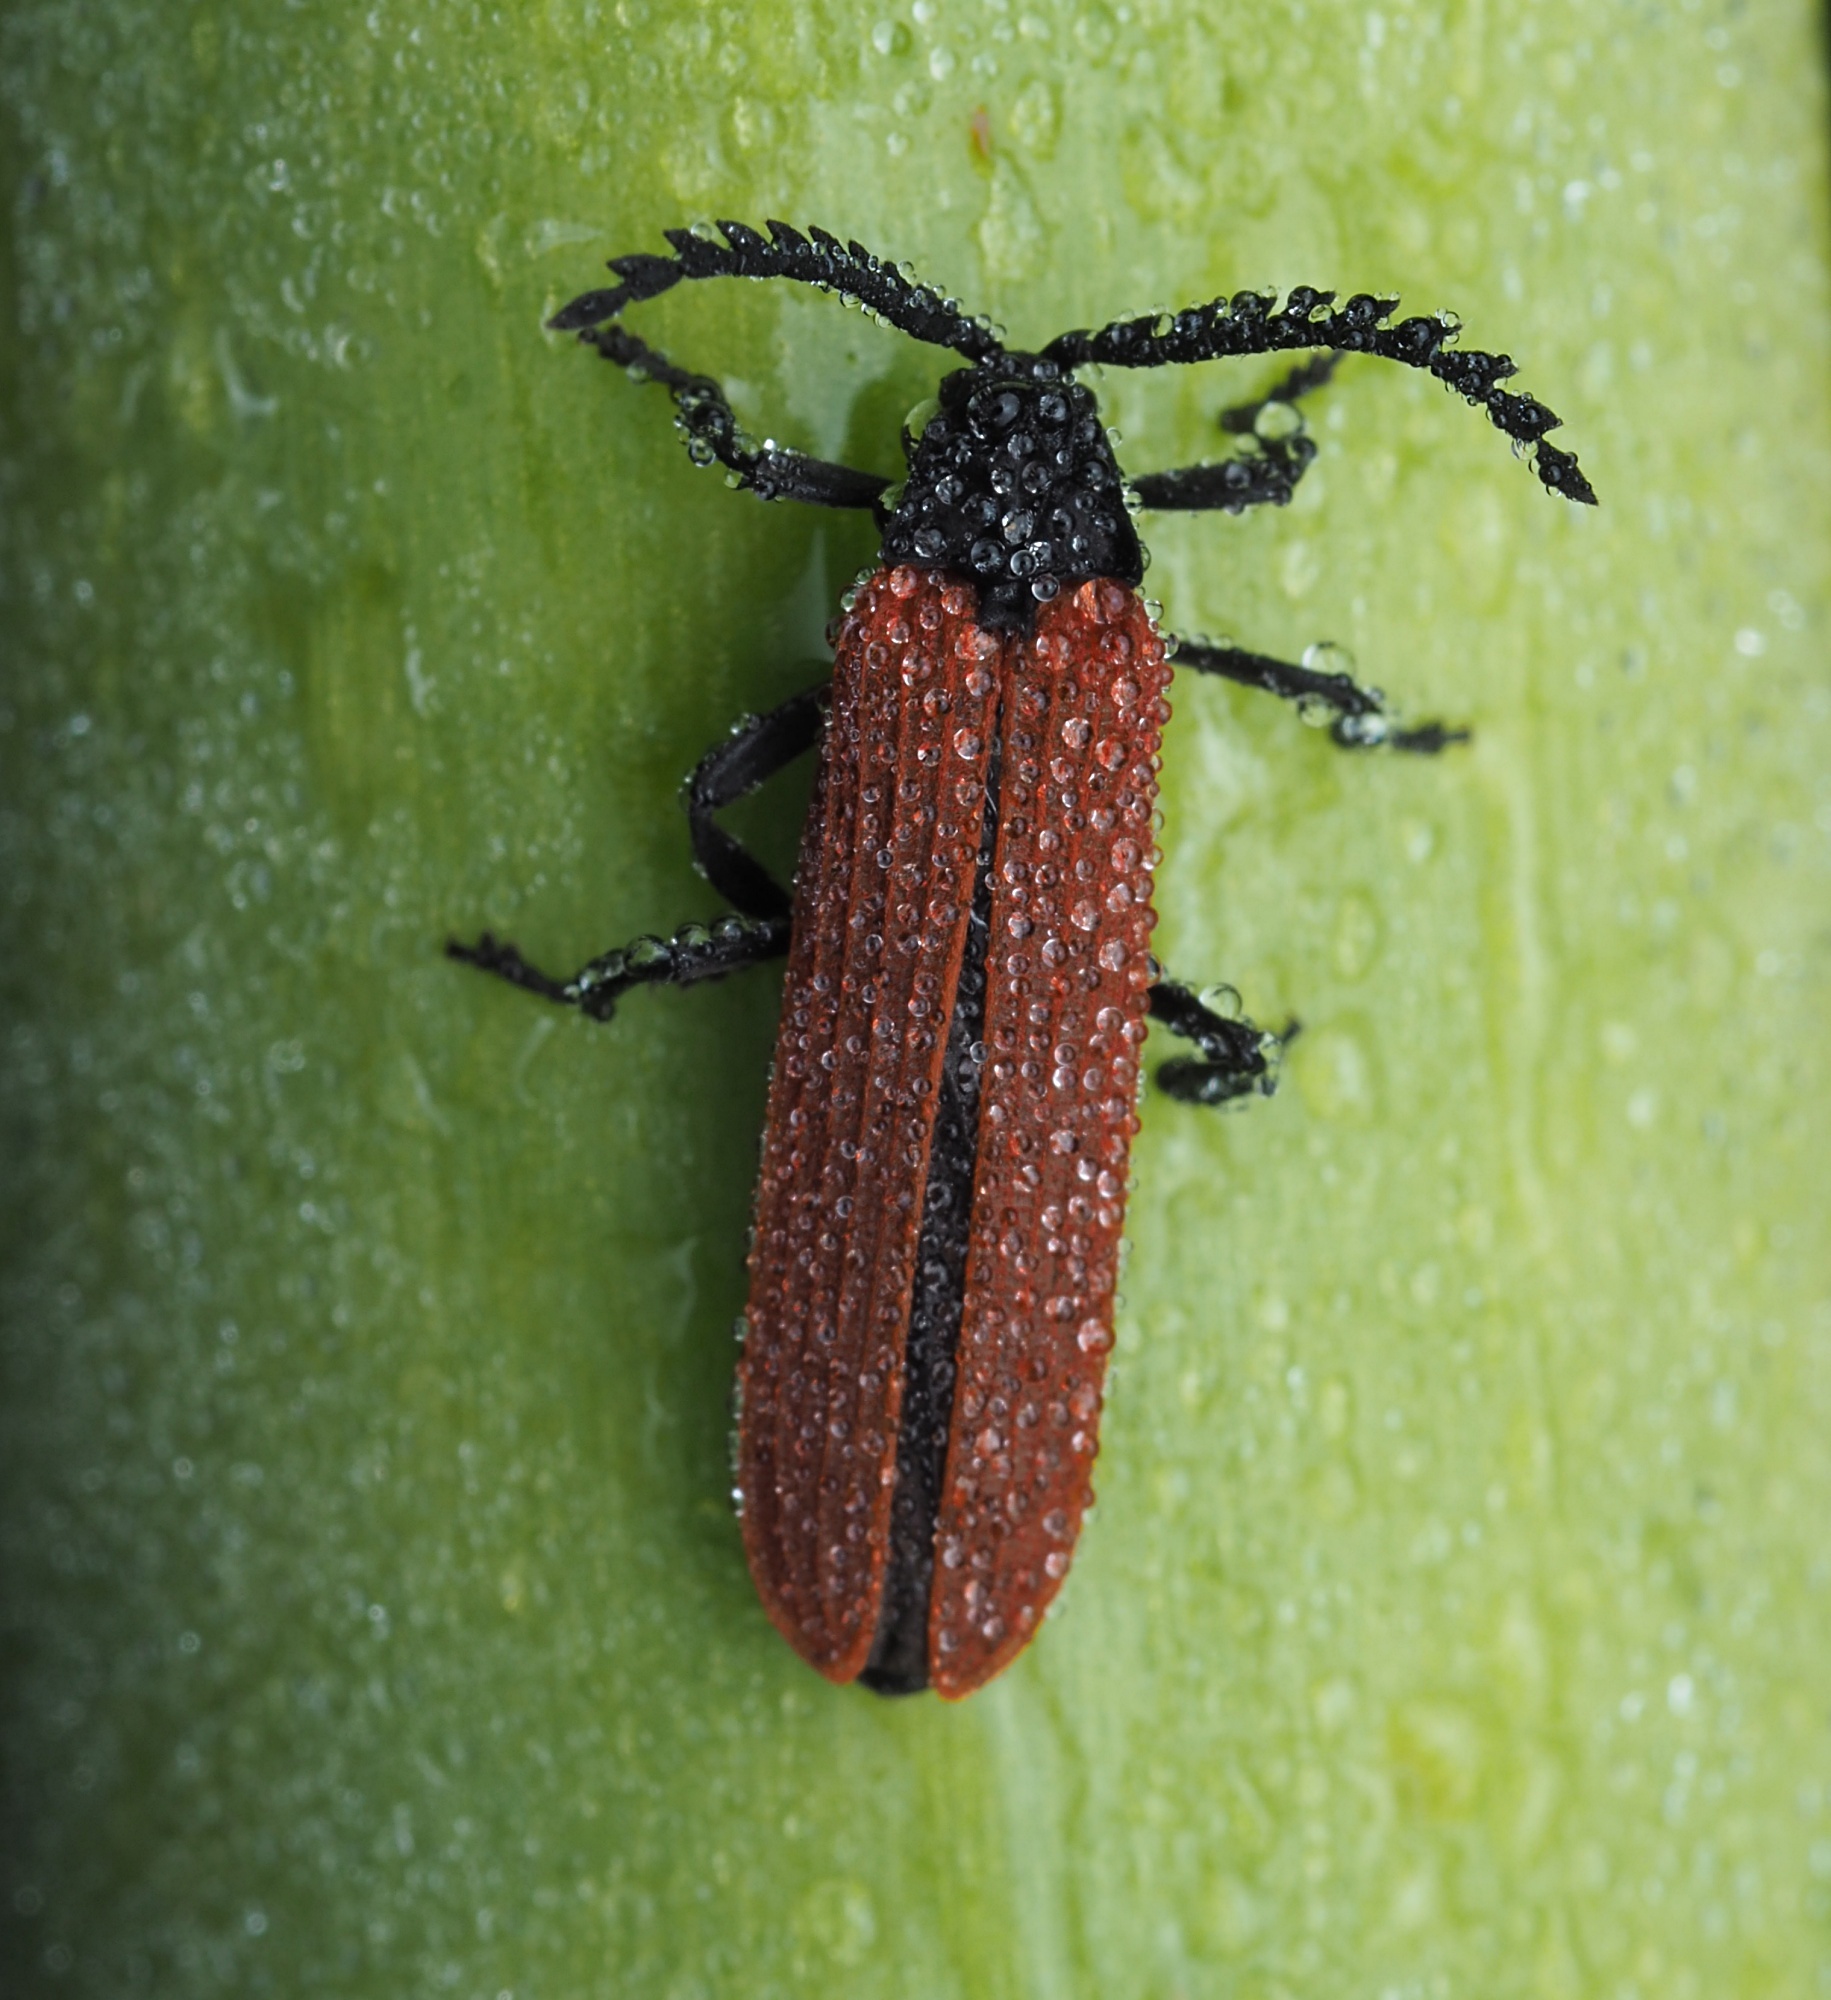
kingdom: Animalia
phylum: Arthropoda
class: Insecta
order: Coleoptera
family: Lycidae
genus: Porrostoma
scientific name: Porrostoma rufipenne
